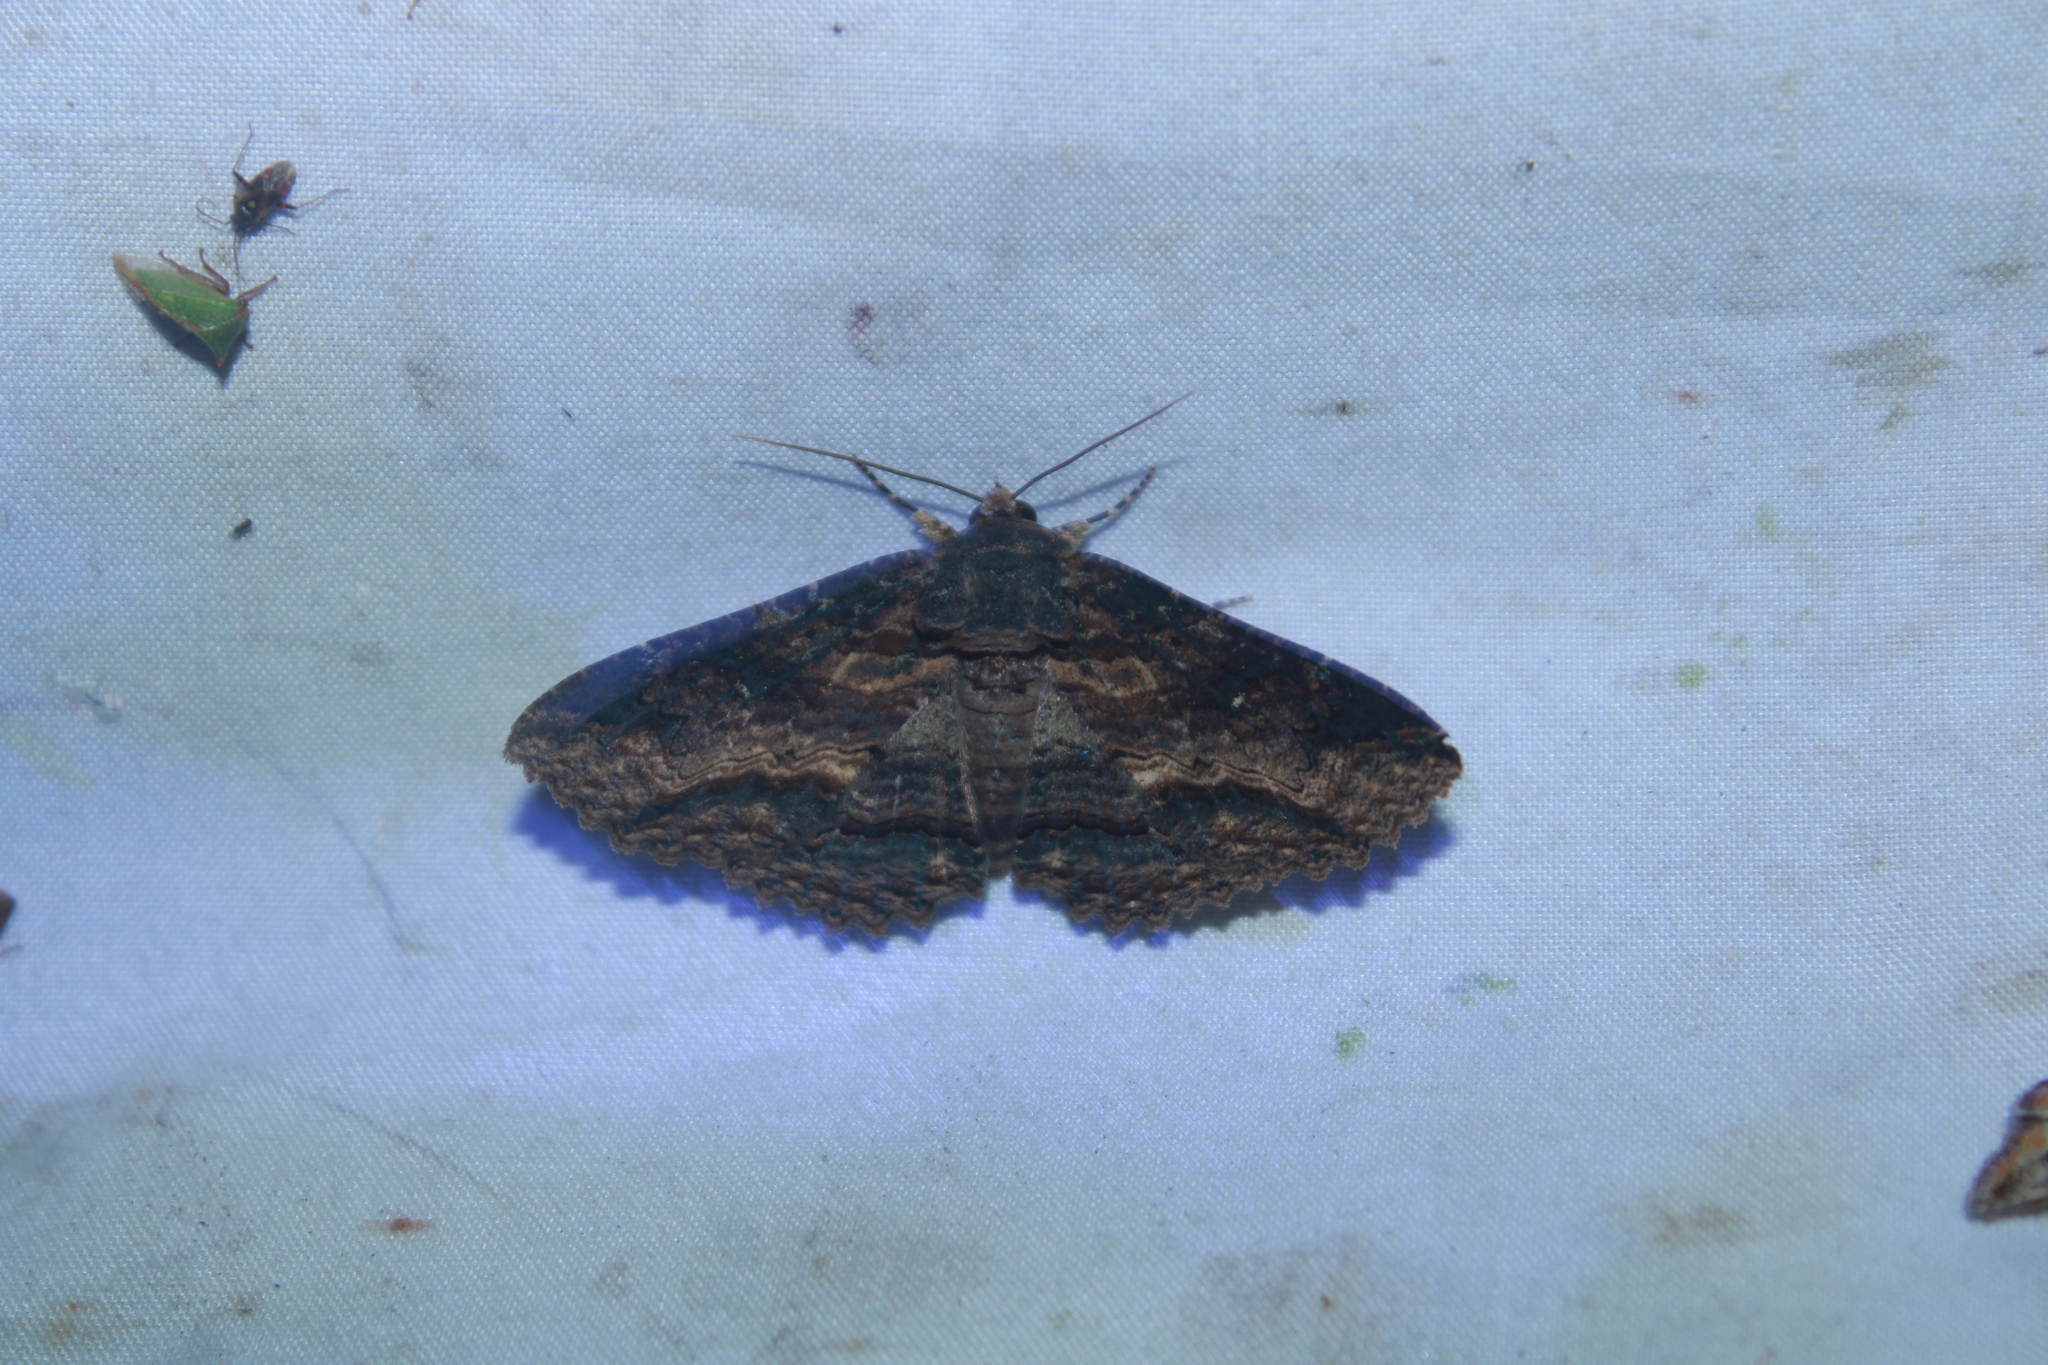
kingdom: Animalia
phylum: Arthropoda
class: Insecta
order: Lepidoptera
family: Erebidae
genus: Zale
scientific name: Zale lunata
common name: Lunate zale moth
